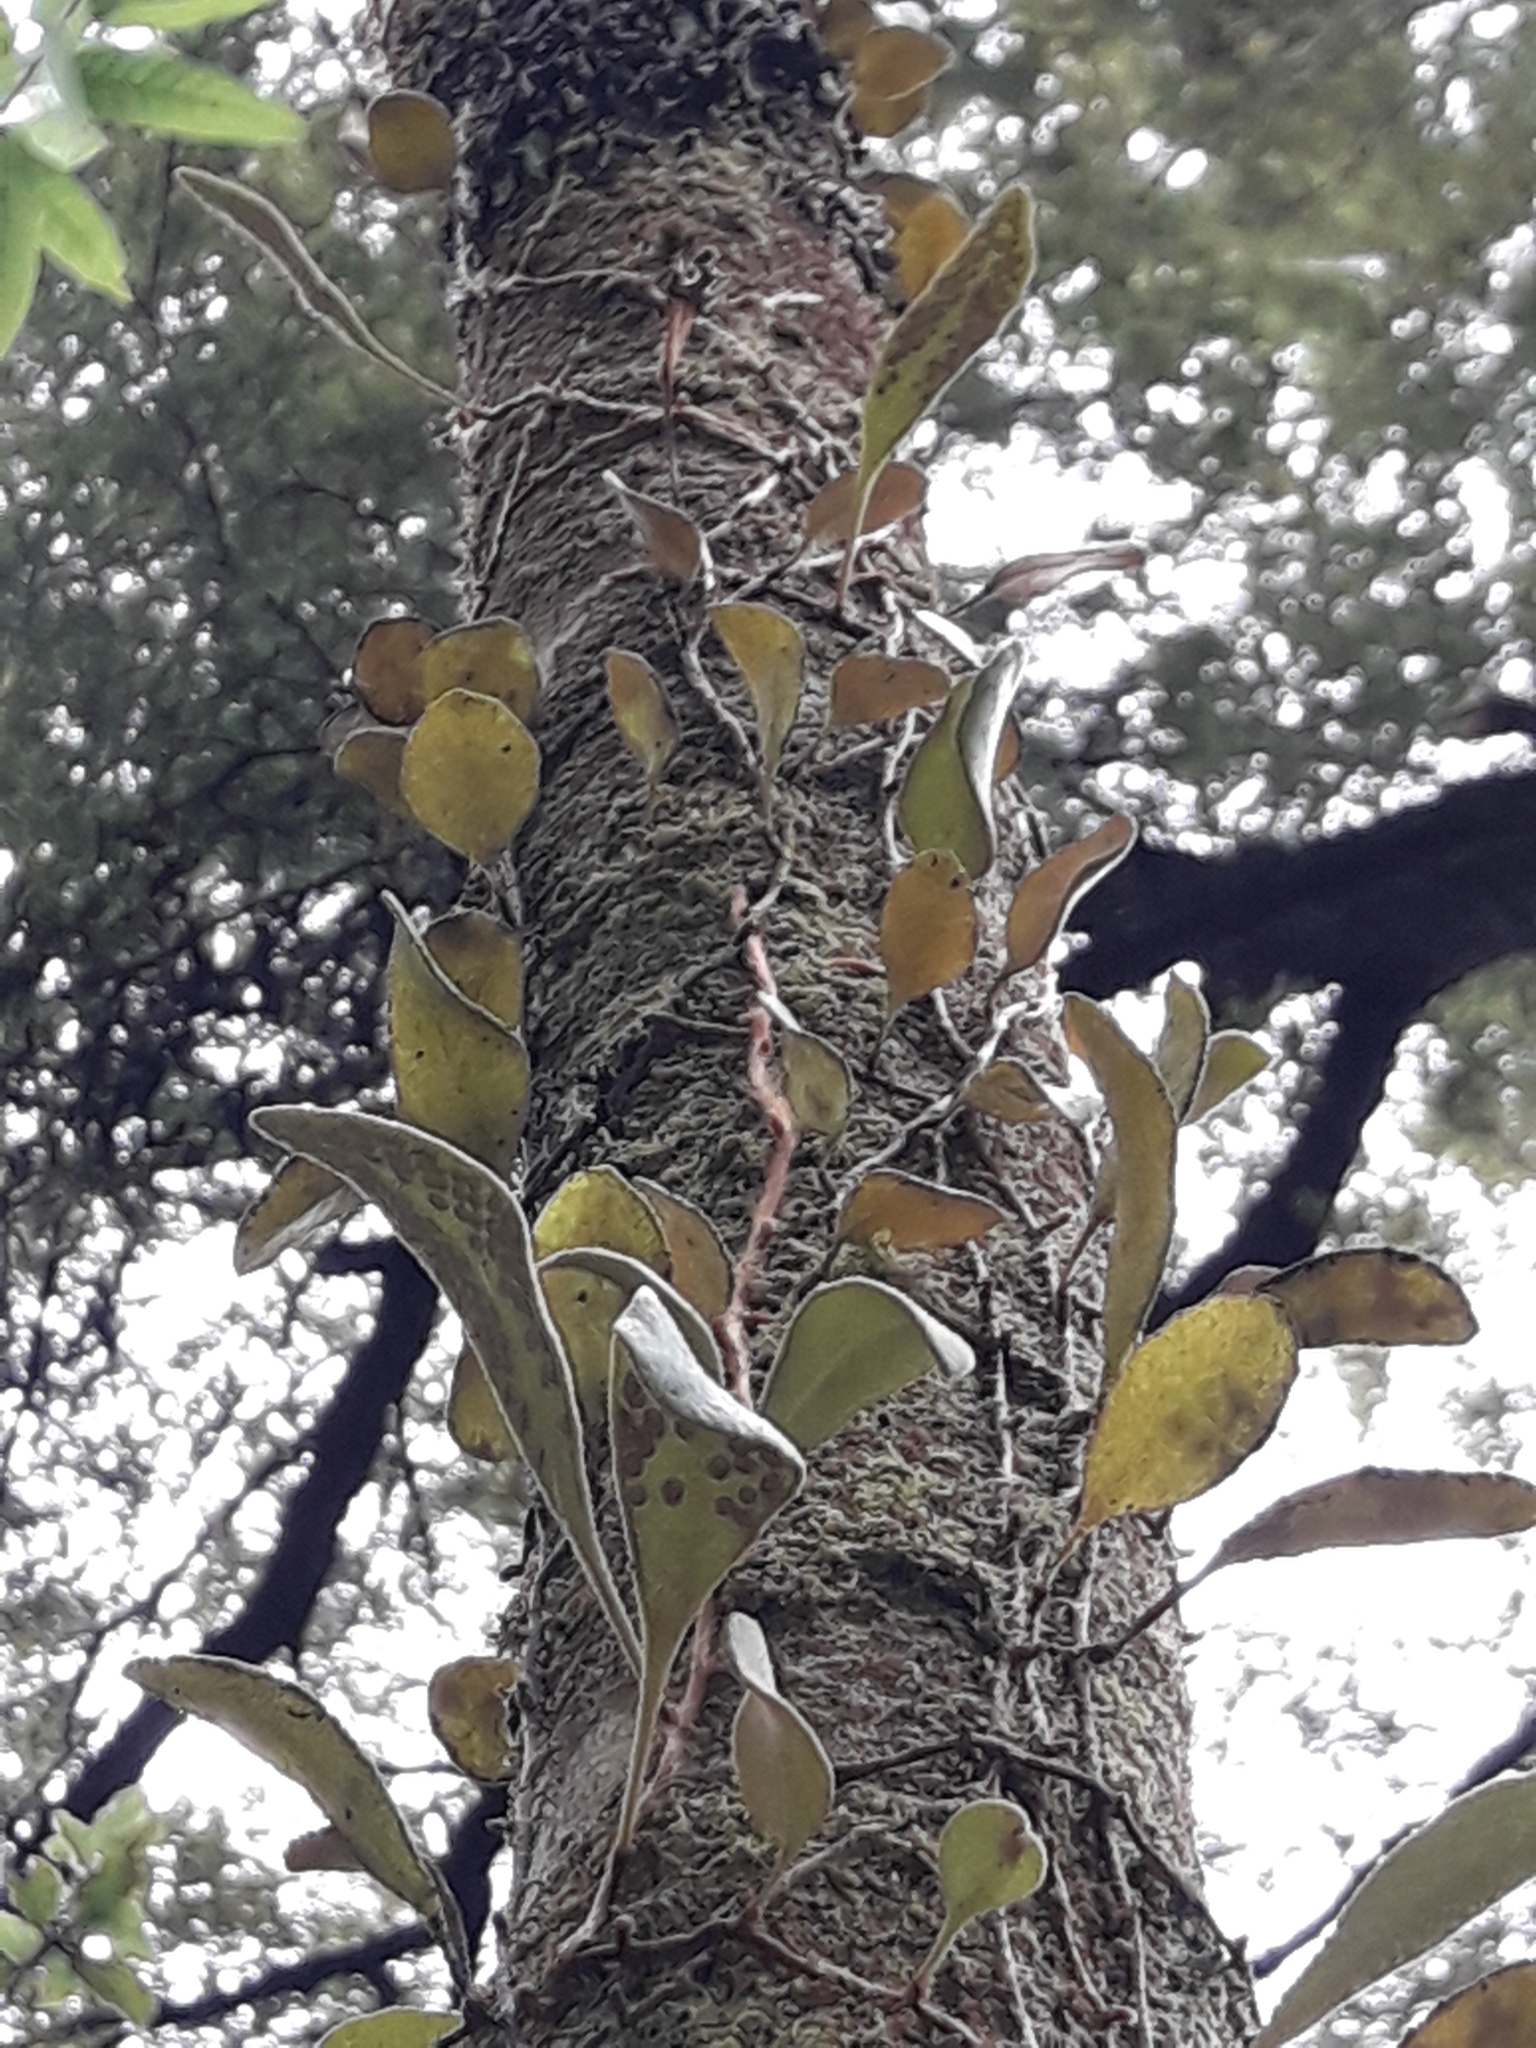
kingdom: Plantae
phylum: Tracheophyta
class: Polypodiopsida
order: Polypodiales
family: Polypodiaceae
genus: Pyrrosia
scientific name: Pyrrosia eleagnifolia
